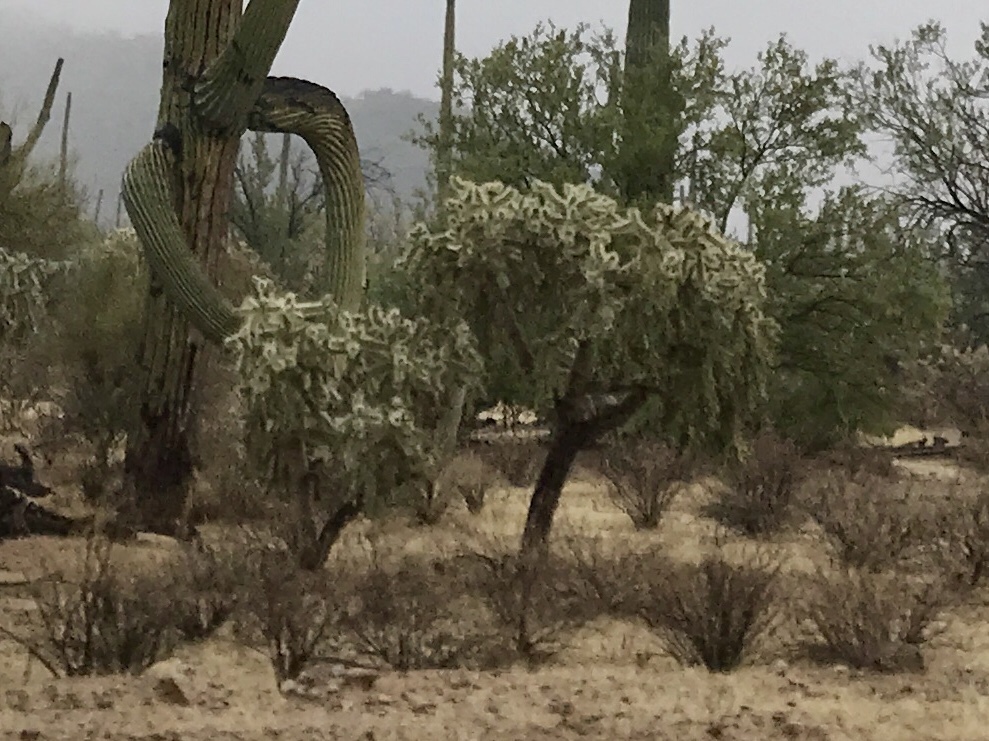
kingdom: Plantae
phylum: Tracheophyta
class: Magnoliopsida
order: Caryophyllales
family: Cactaceae
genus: Cylindropuntia
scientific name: Cylindropuntia fulgida
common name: Jumping cholla
